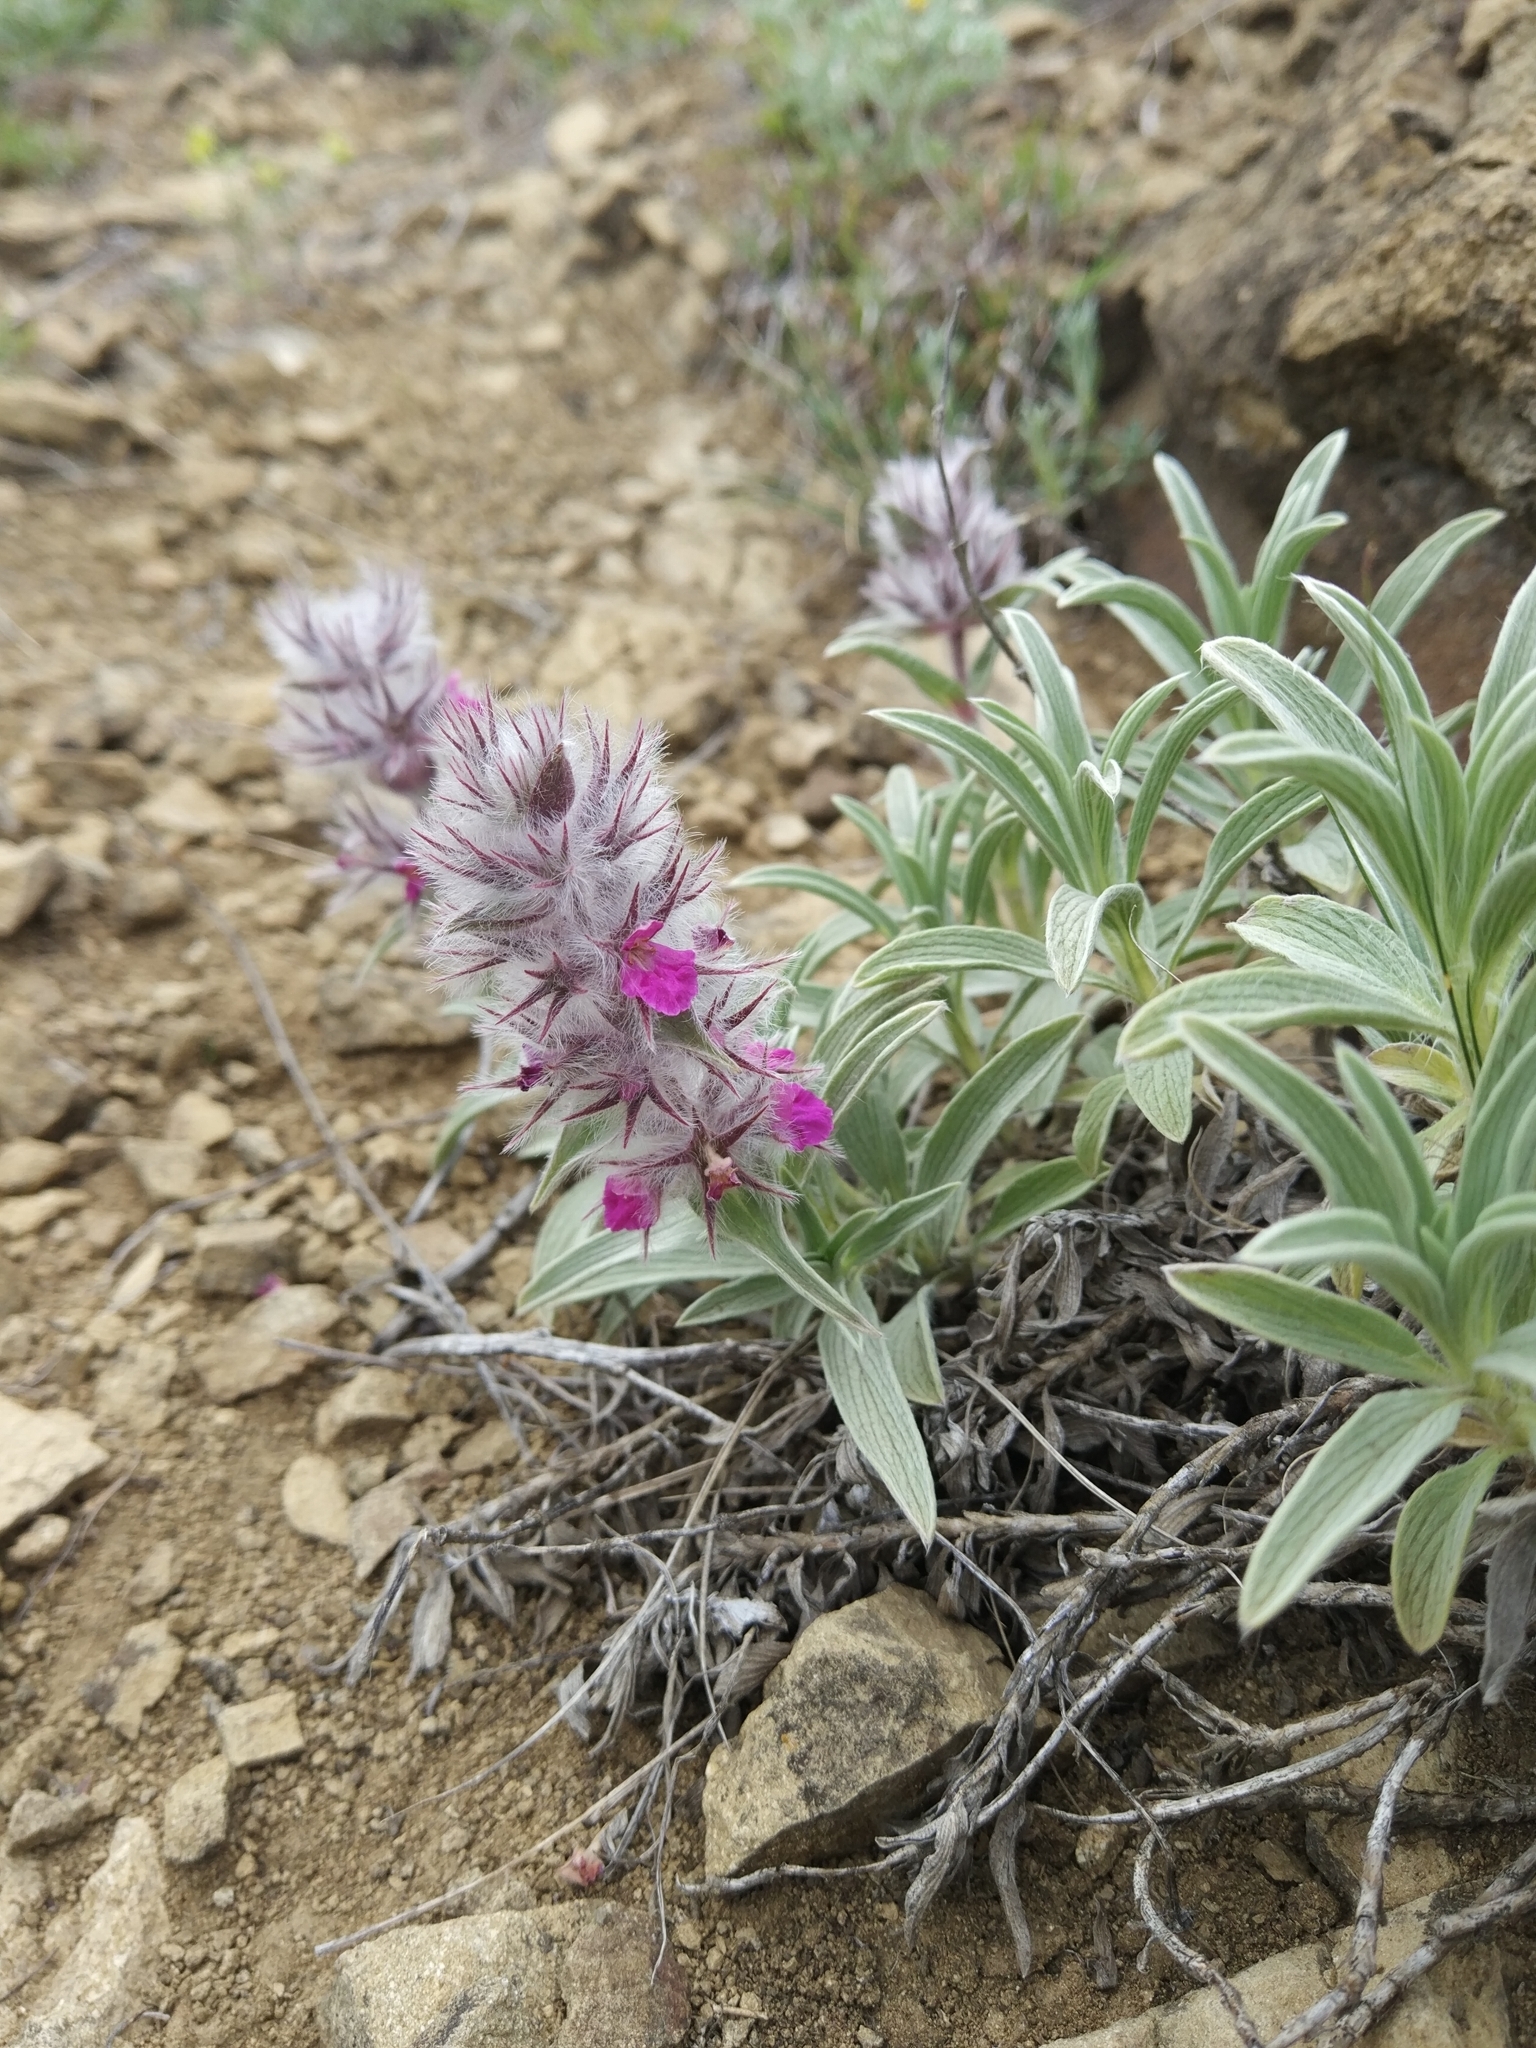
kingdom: Plantae
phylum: Tracheophyta
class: Magnoliopsida
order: Lamiales
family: Lamiaceae
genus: Stachys
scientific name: Stachys lavandulifolia
